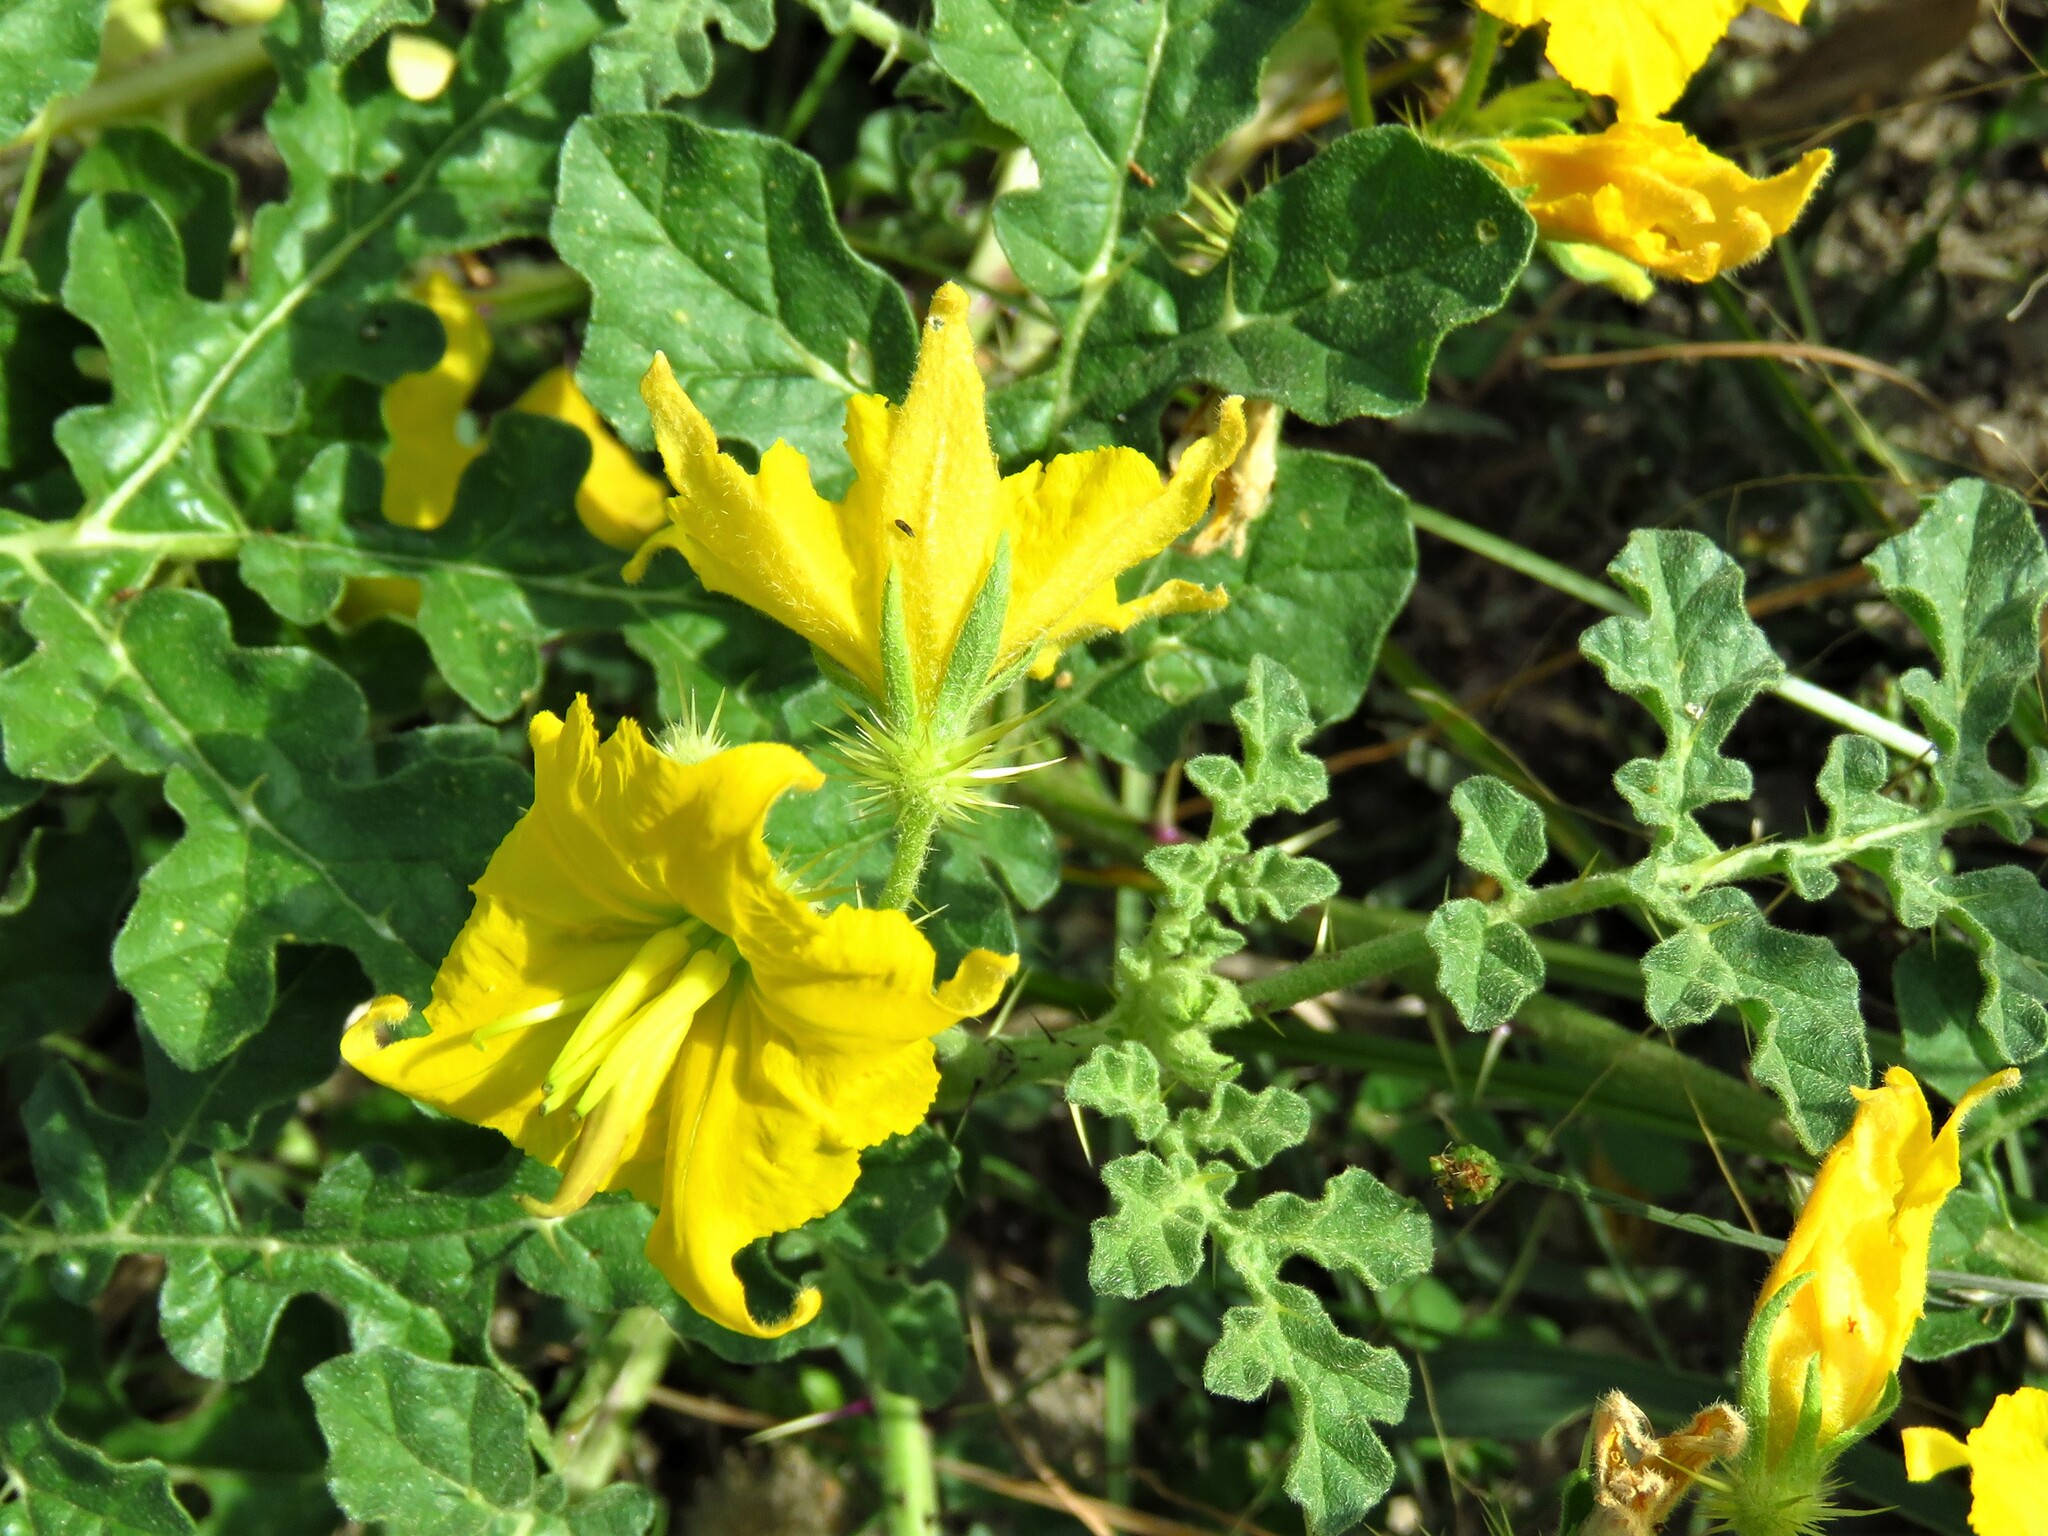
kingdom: Plantae
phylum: Tracheophyta
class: Magnoliopsida
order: Solanales
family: Solanaceae
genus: Solanum
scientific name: Solanum angustifolium
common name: Buffalobur nightshade
